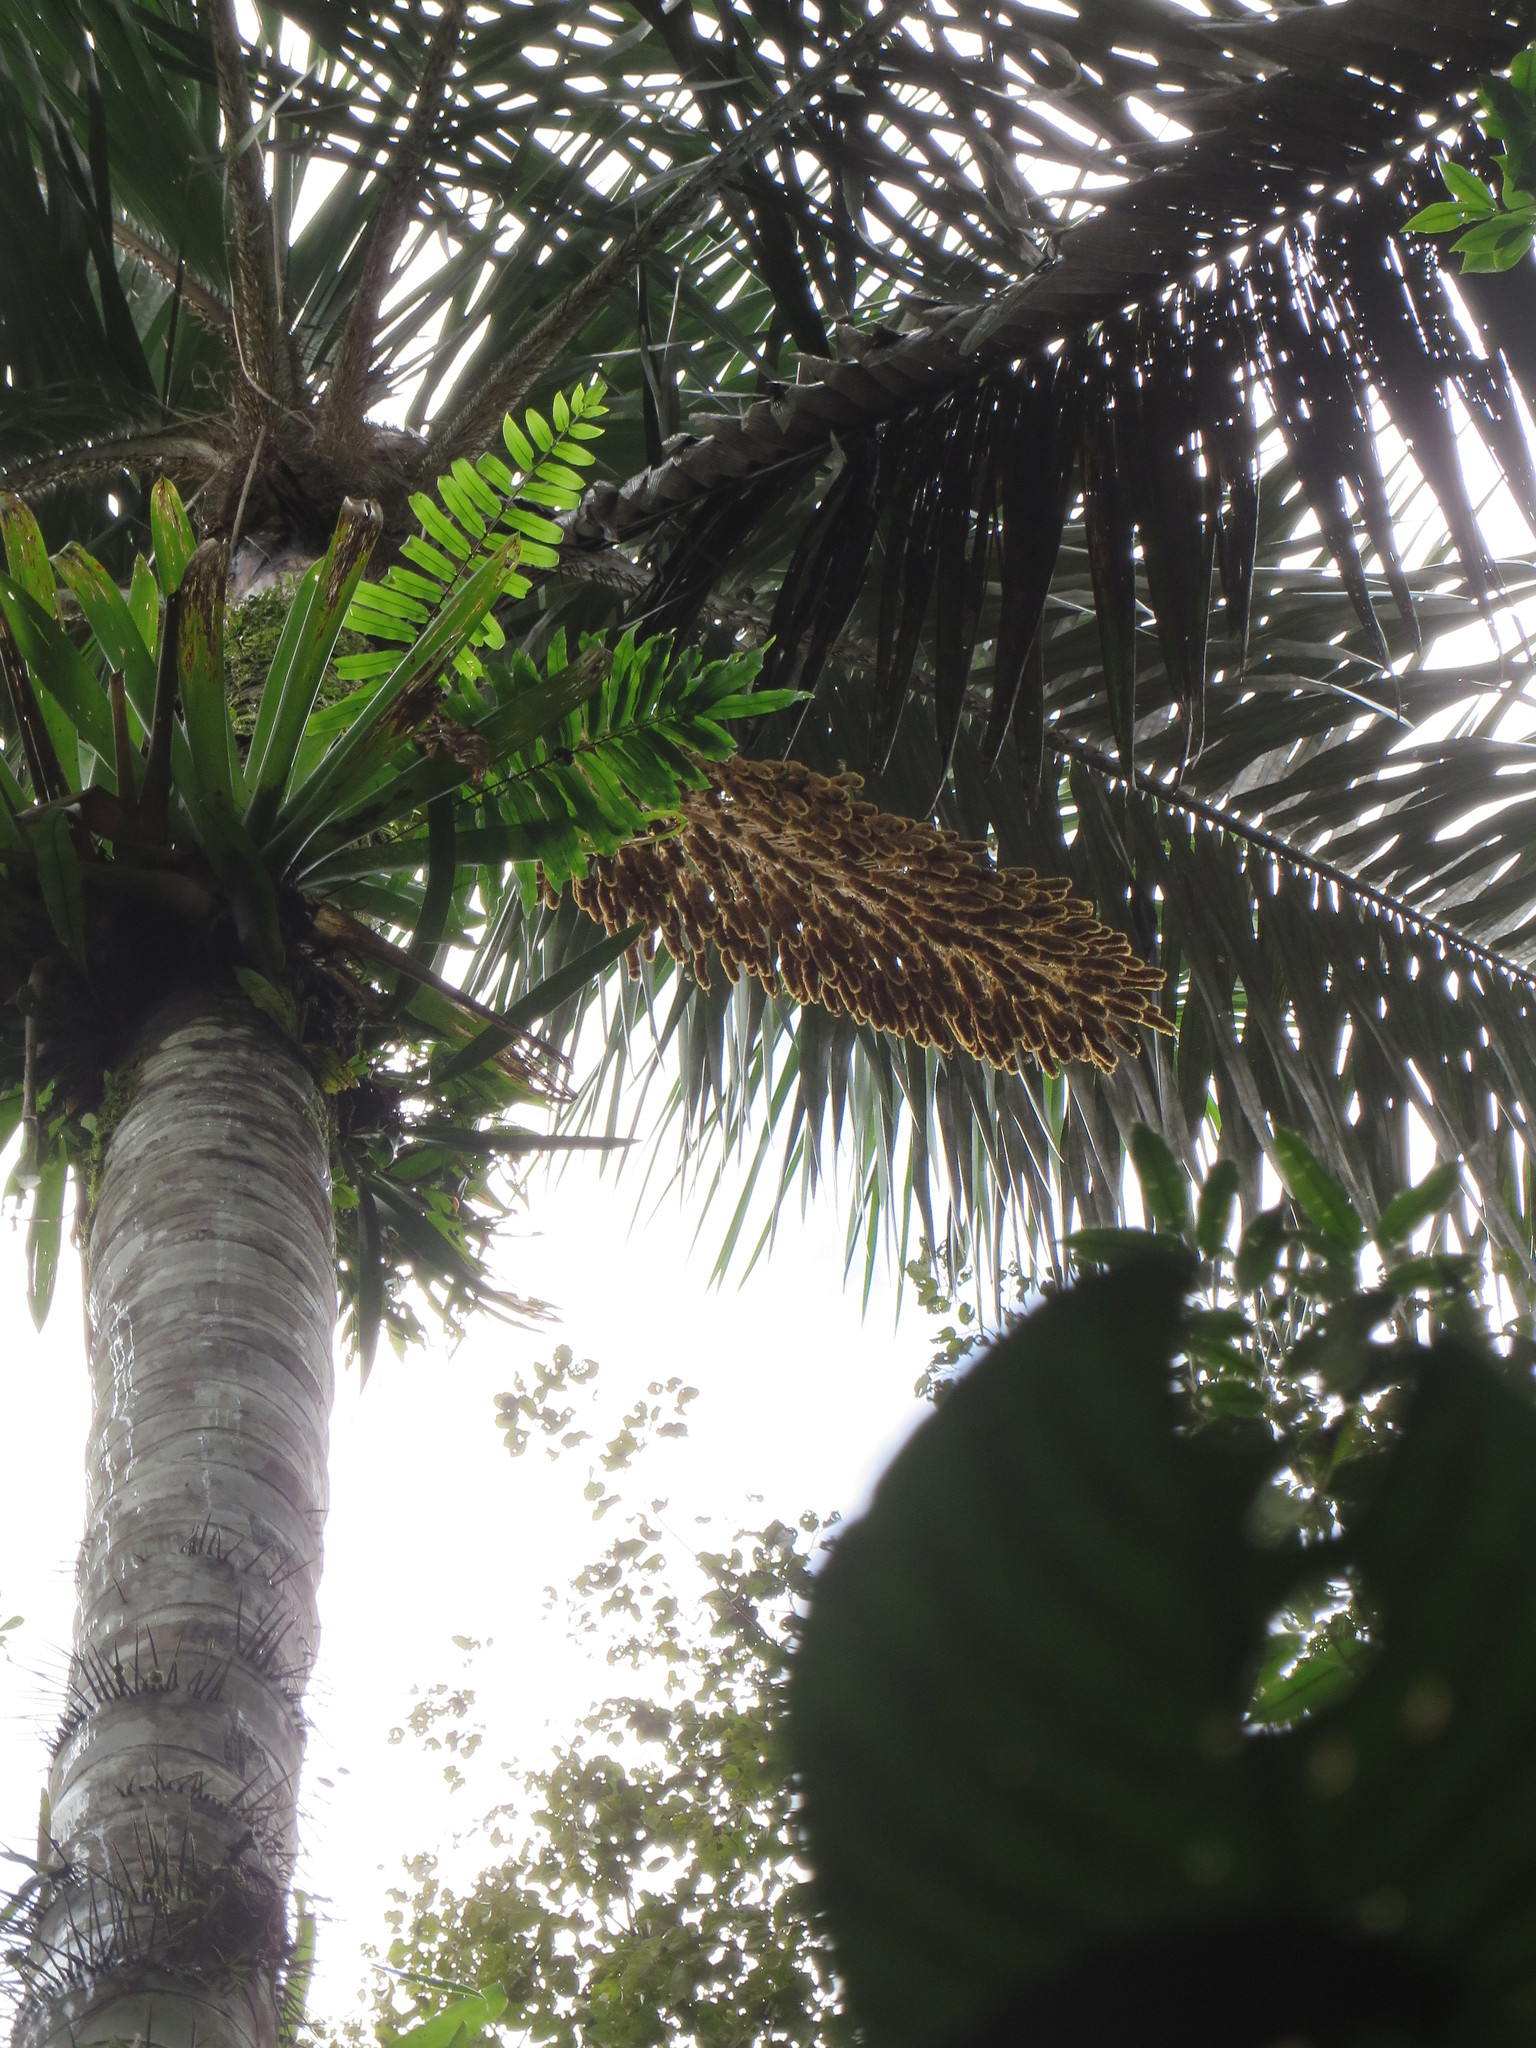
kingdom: Plantae
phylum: Tracheophyta
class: Liliopsida
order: Arecales
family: Arecaceae
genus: Astrocaryum
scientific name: Astrocaryum chambira
